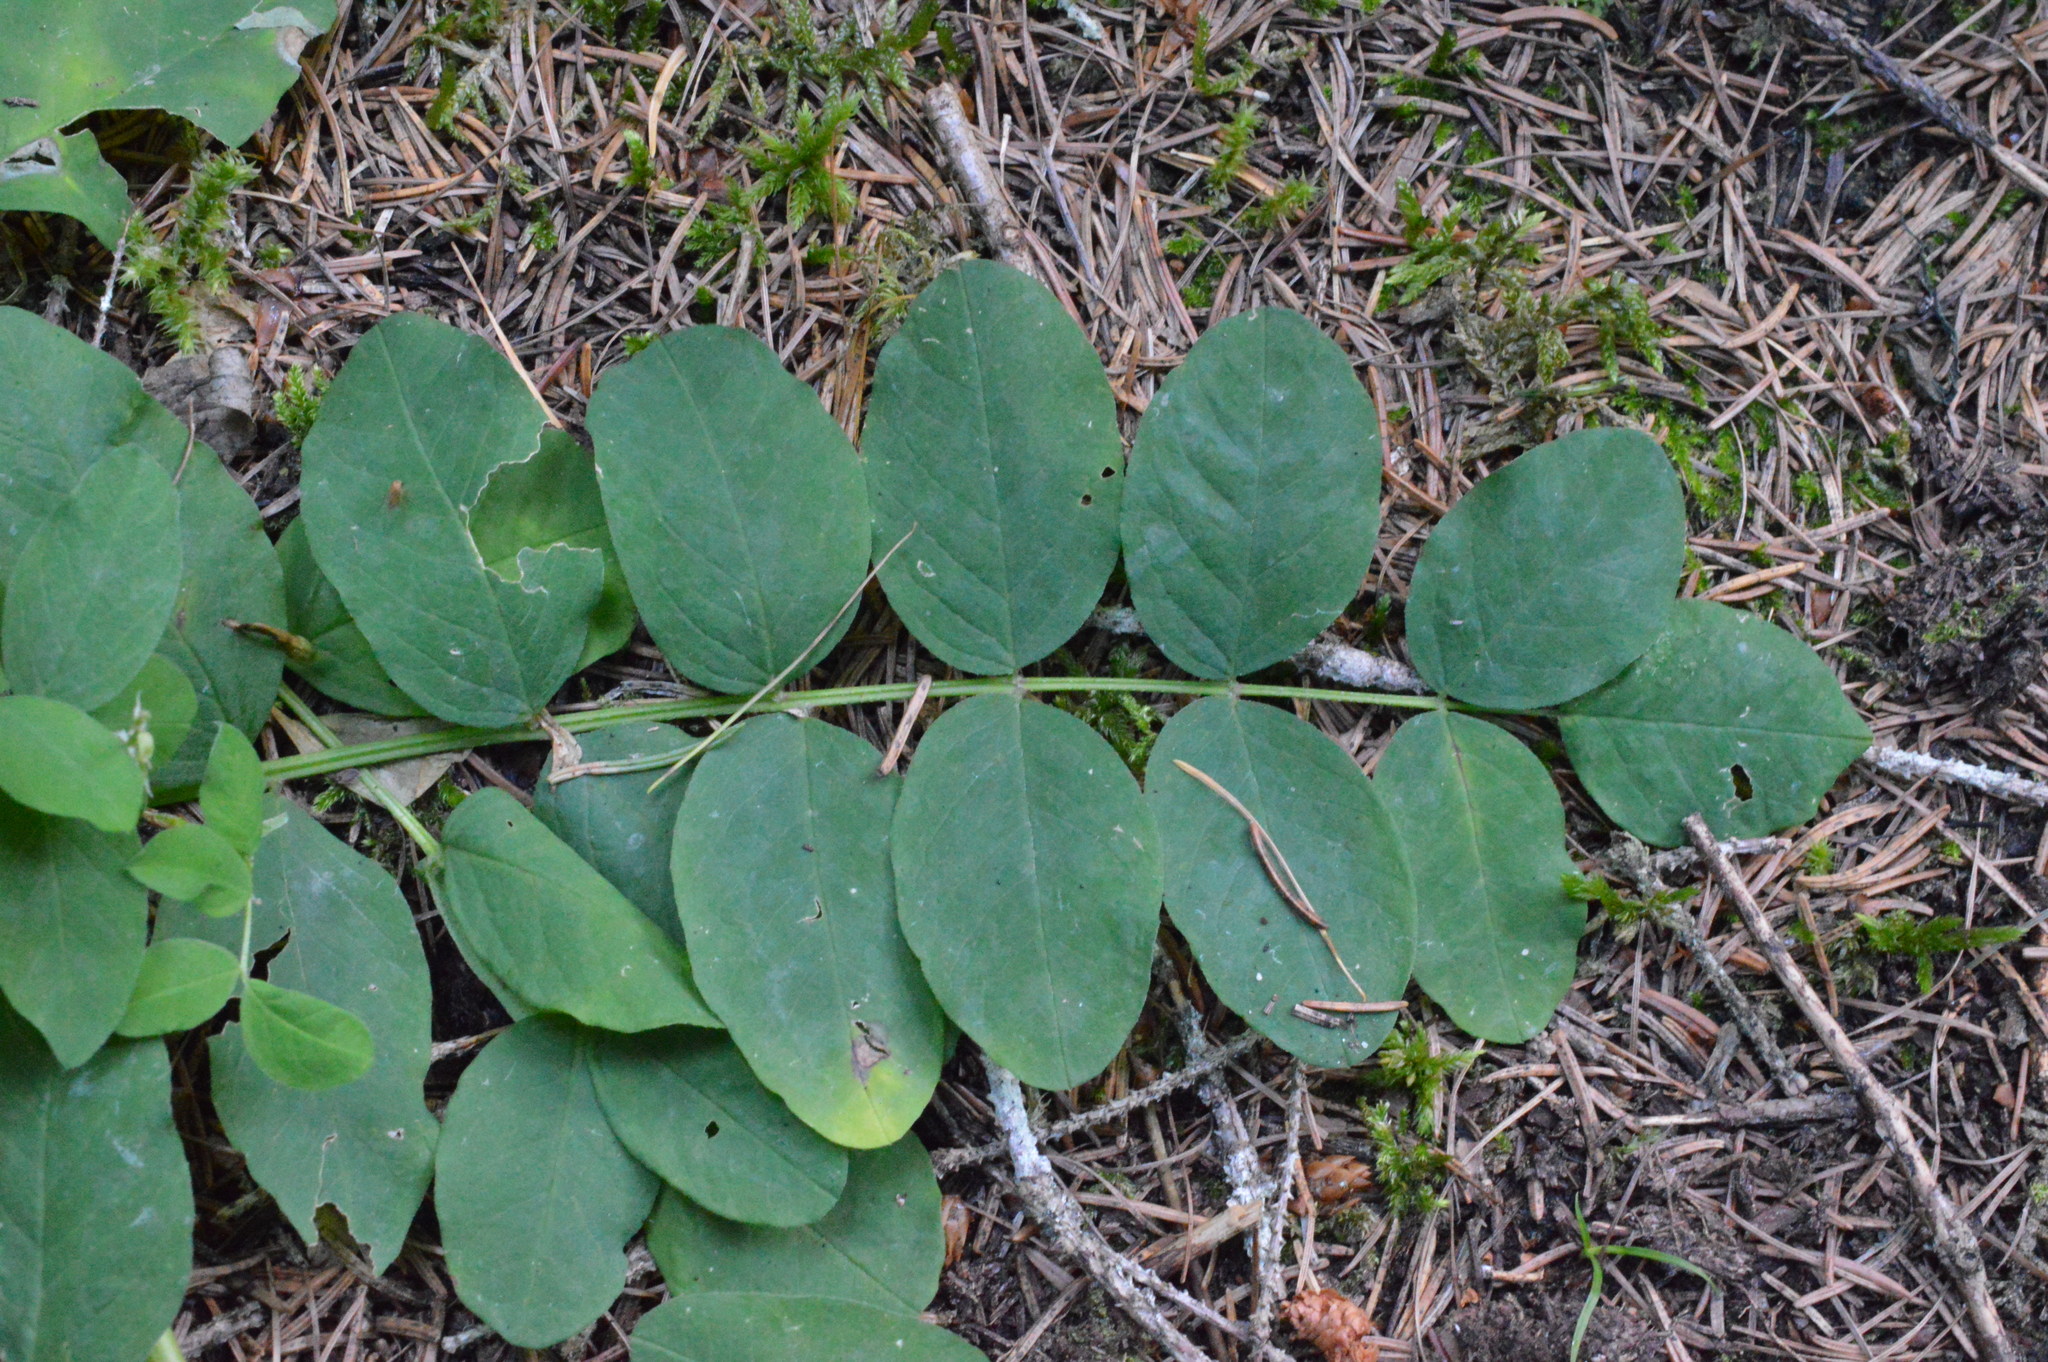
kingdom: Plantae
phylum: Tracheophyta
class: Magnoliopsida
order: Fabales
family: Fabaceae
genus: Astragalus
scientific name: Astragalus glycyphyllos
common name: Wild liquorice
